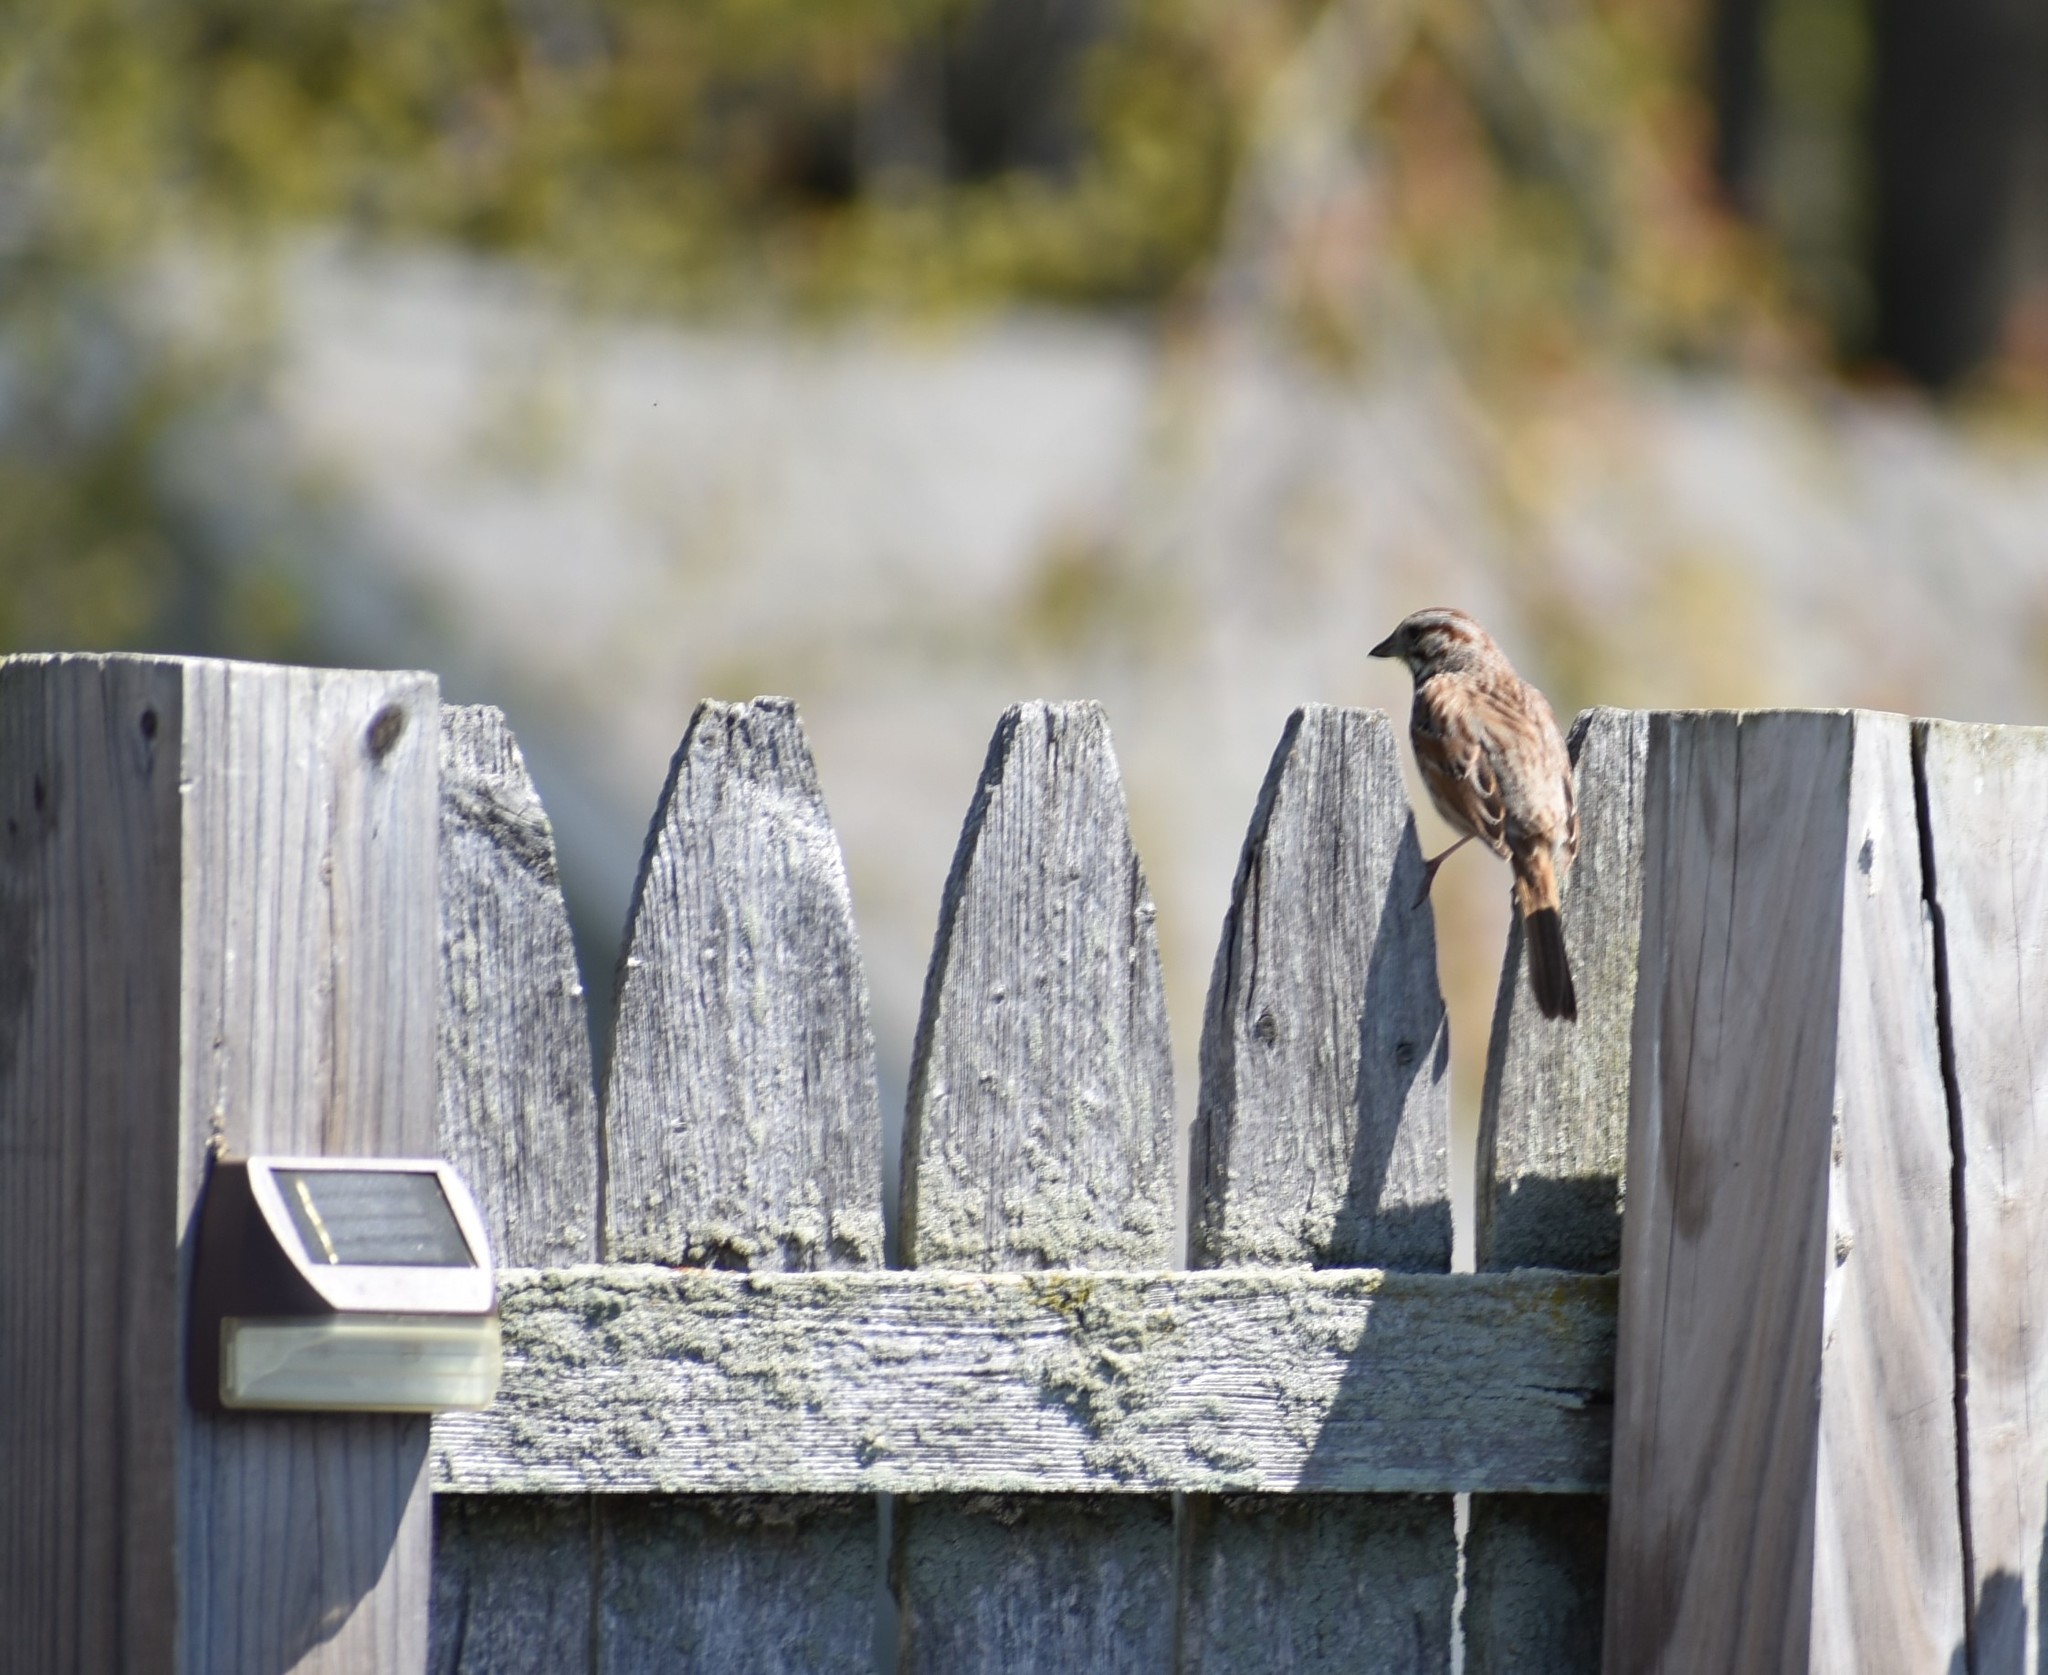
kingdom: Animalia
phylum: Chordata
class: Aves
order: Passeriformes
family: Passerellidae
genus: Melospiza
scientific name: Melospiza melodia
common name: Song sparrow
